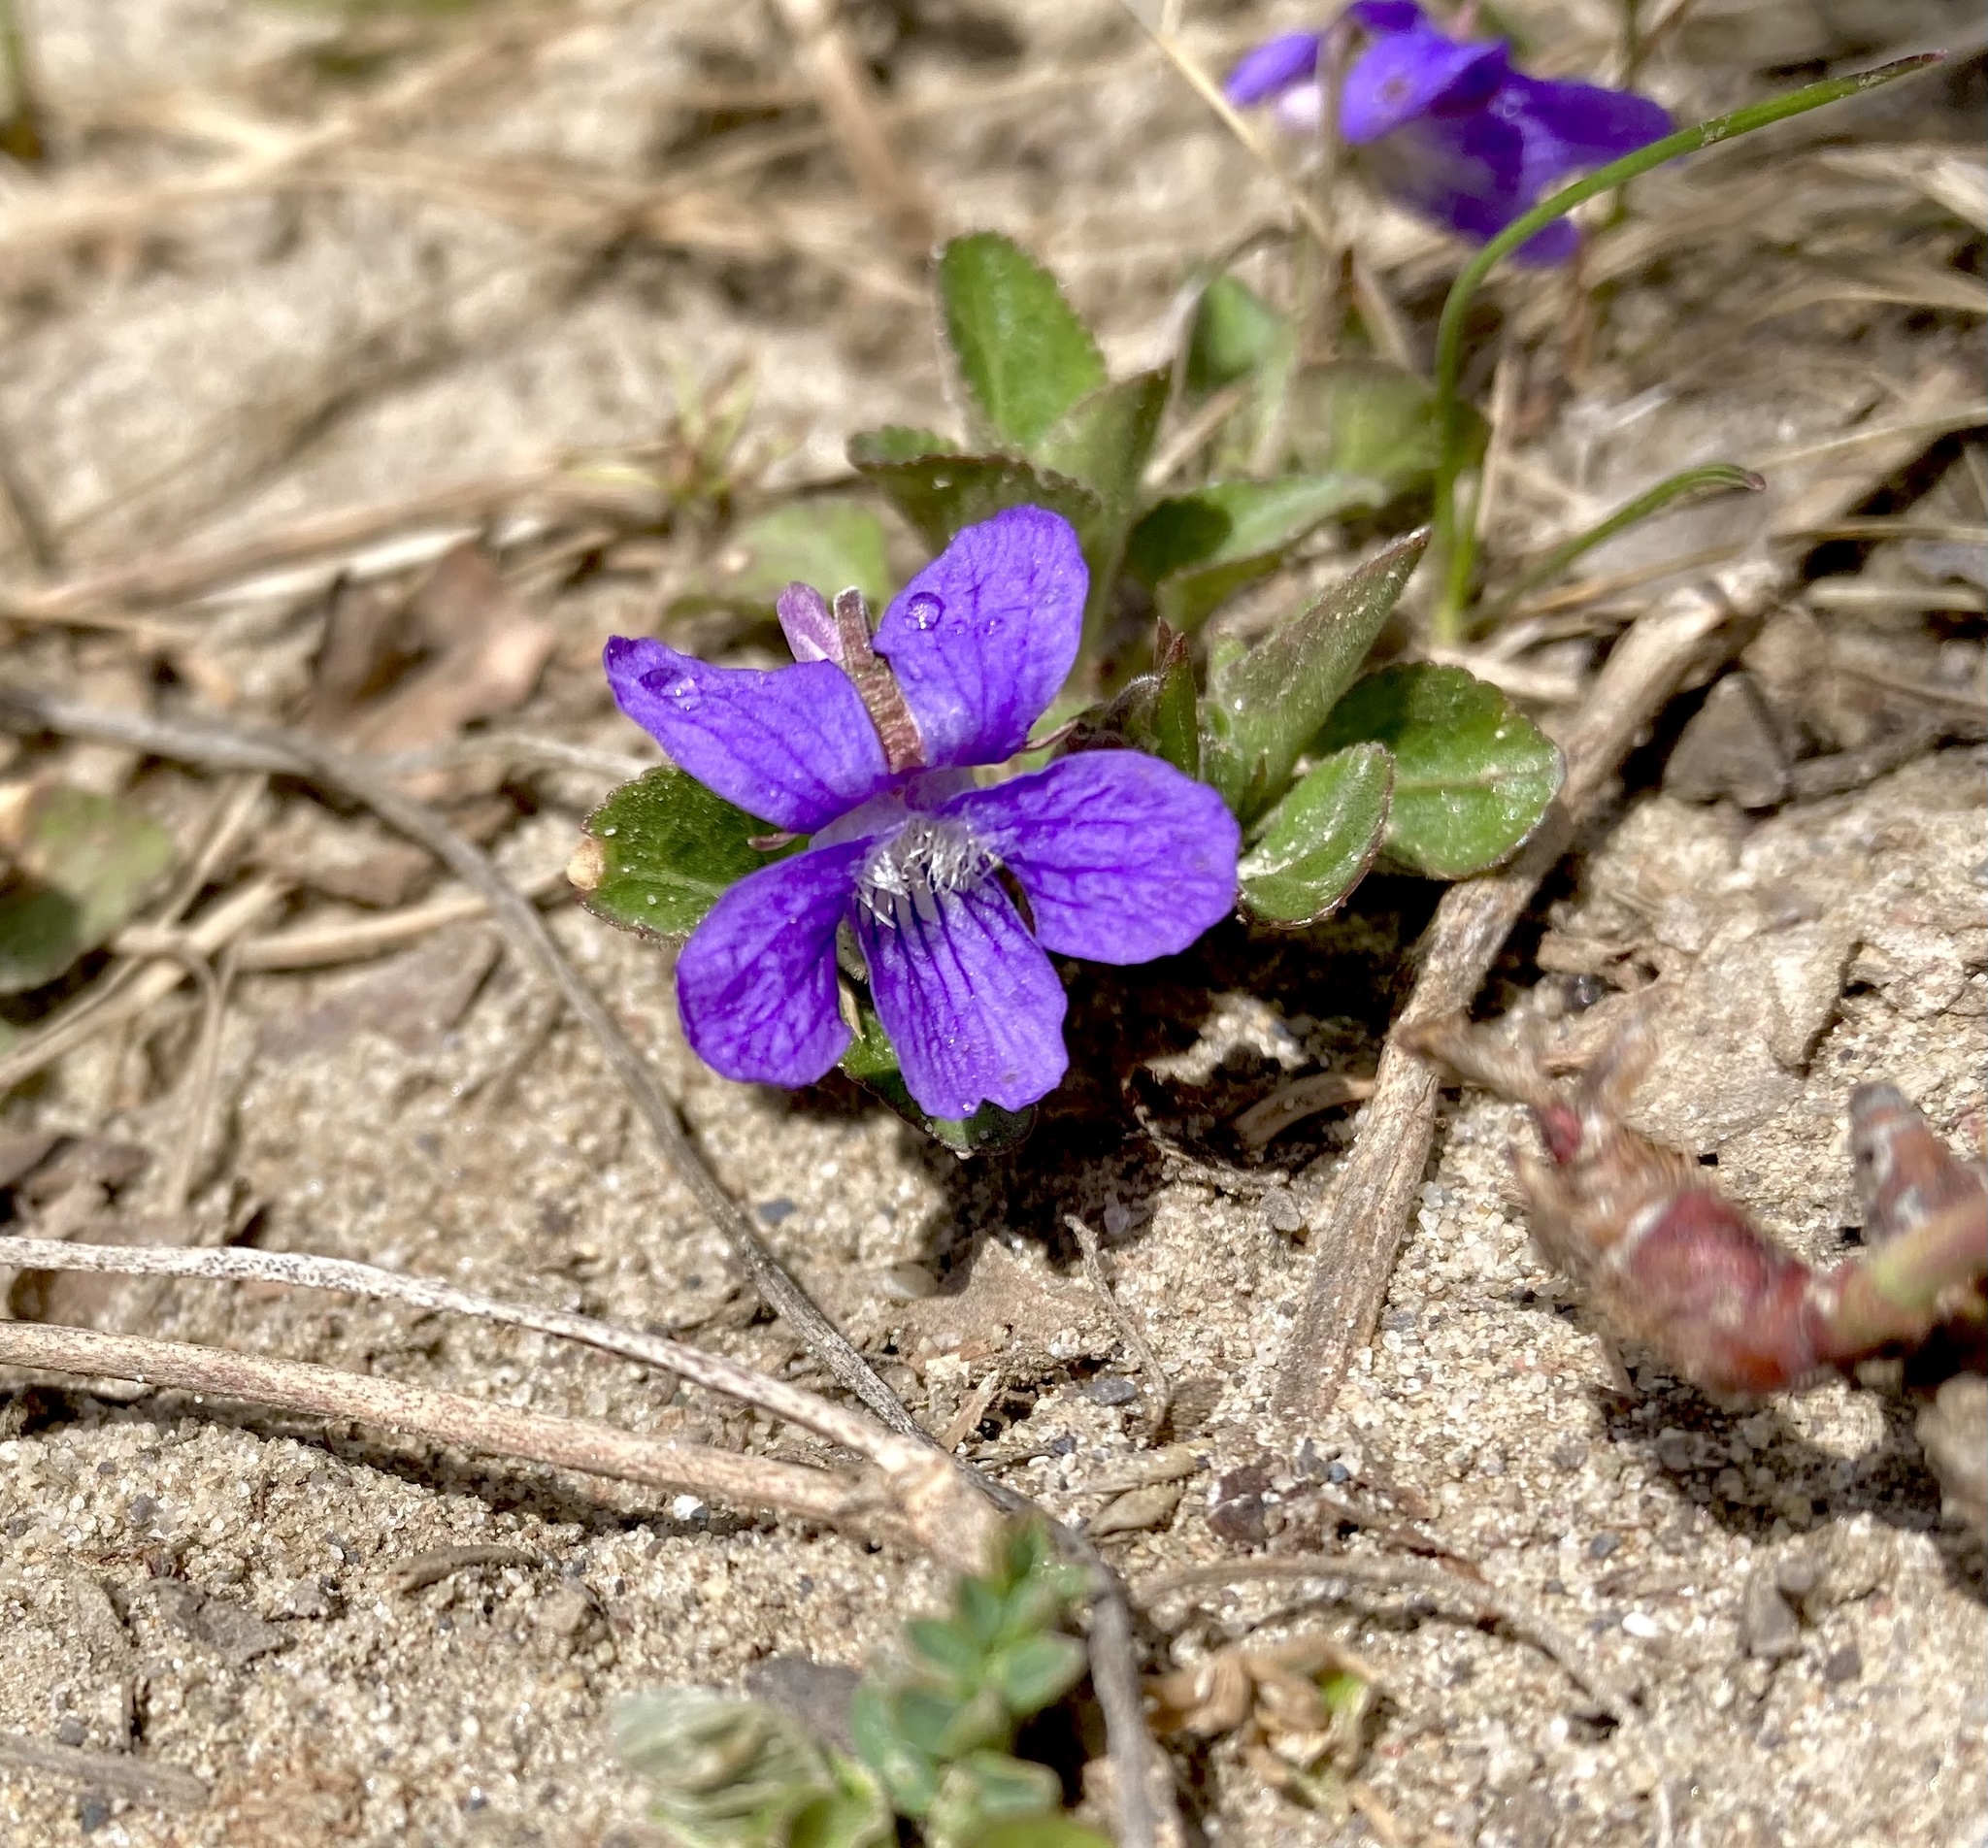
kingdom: Plantae
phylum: Tracheophyta
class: Magnoliopsida
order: Malpighiales
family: Violaceae
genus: Viola
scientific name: Viola adunca
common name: Sand violet
